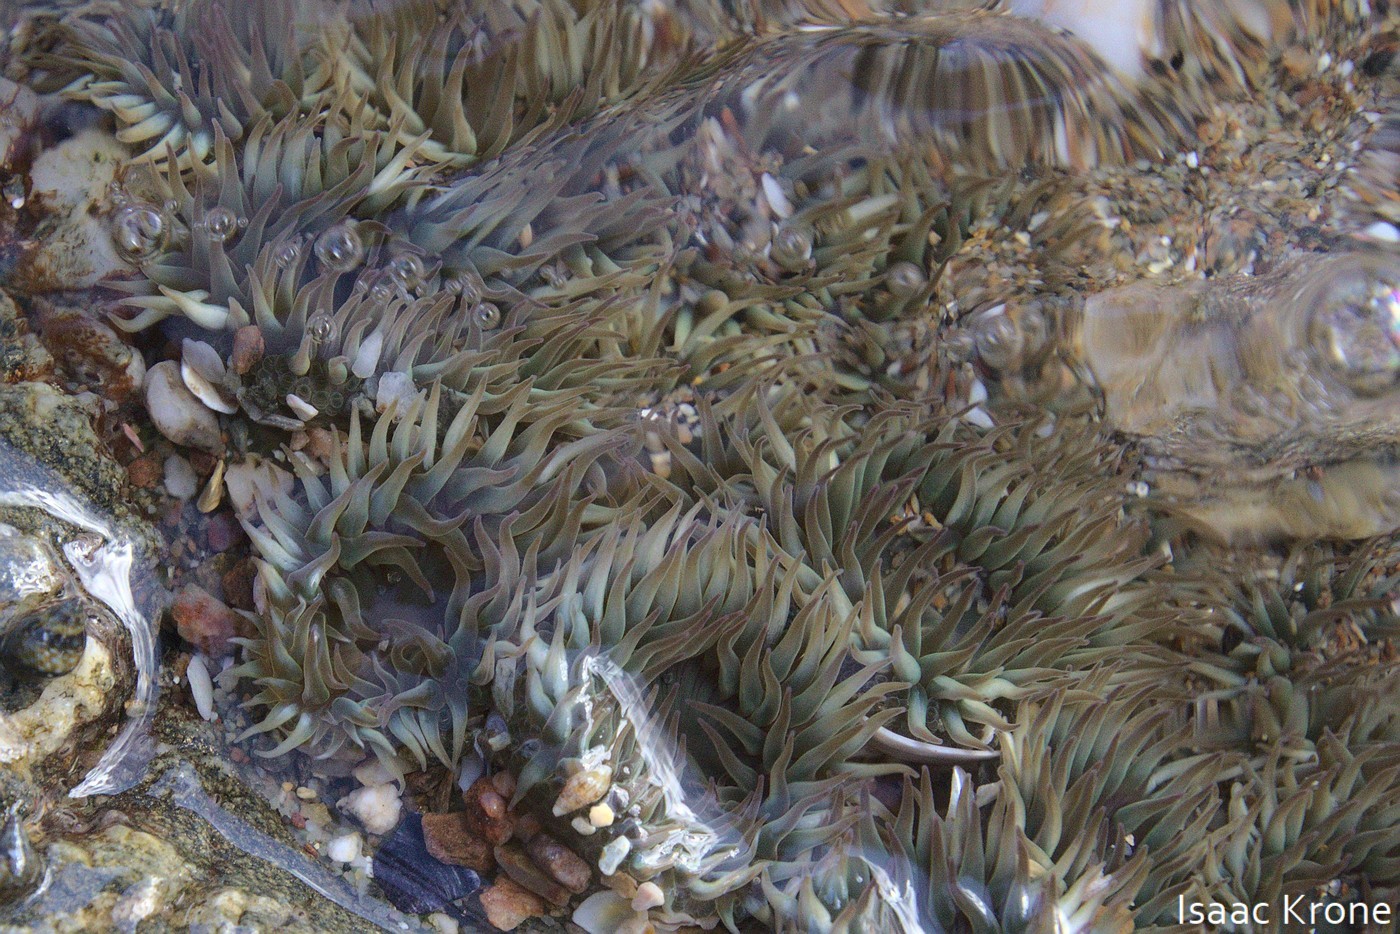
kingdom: Animalia
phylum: Cnidaria
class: Anthozoa
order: Actiniaria
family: Actiniidae
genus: Anthopleura
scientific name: Anthopleura elegantissima
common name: Clonal anemone
